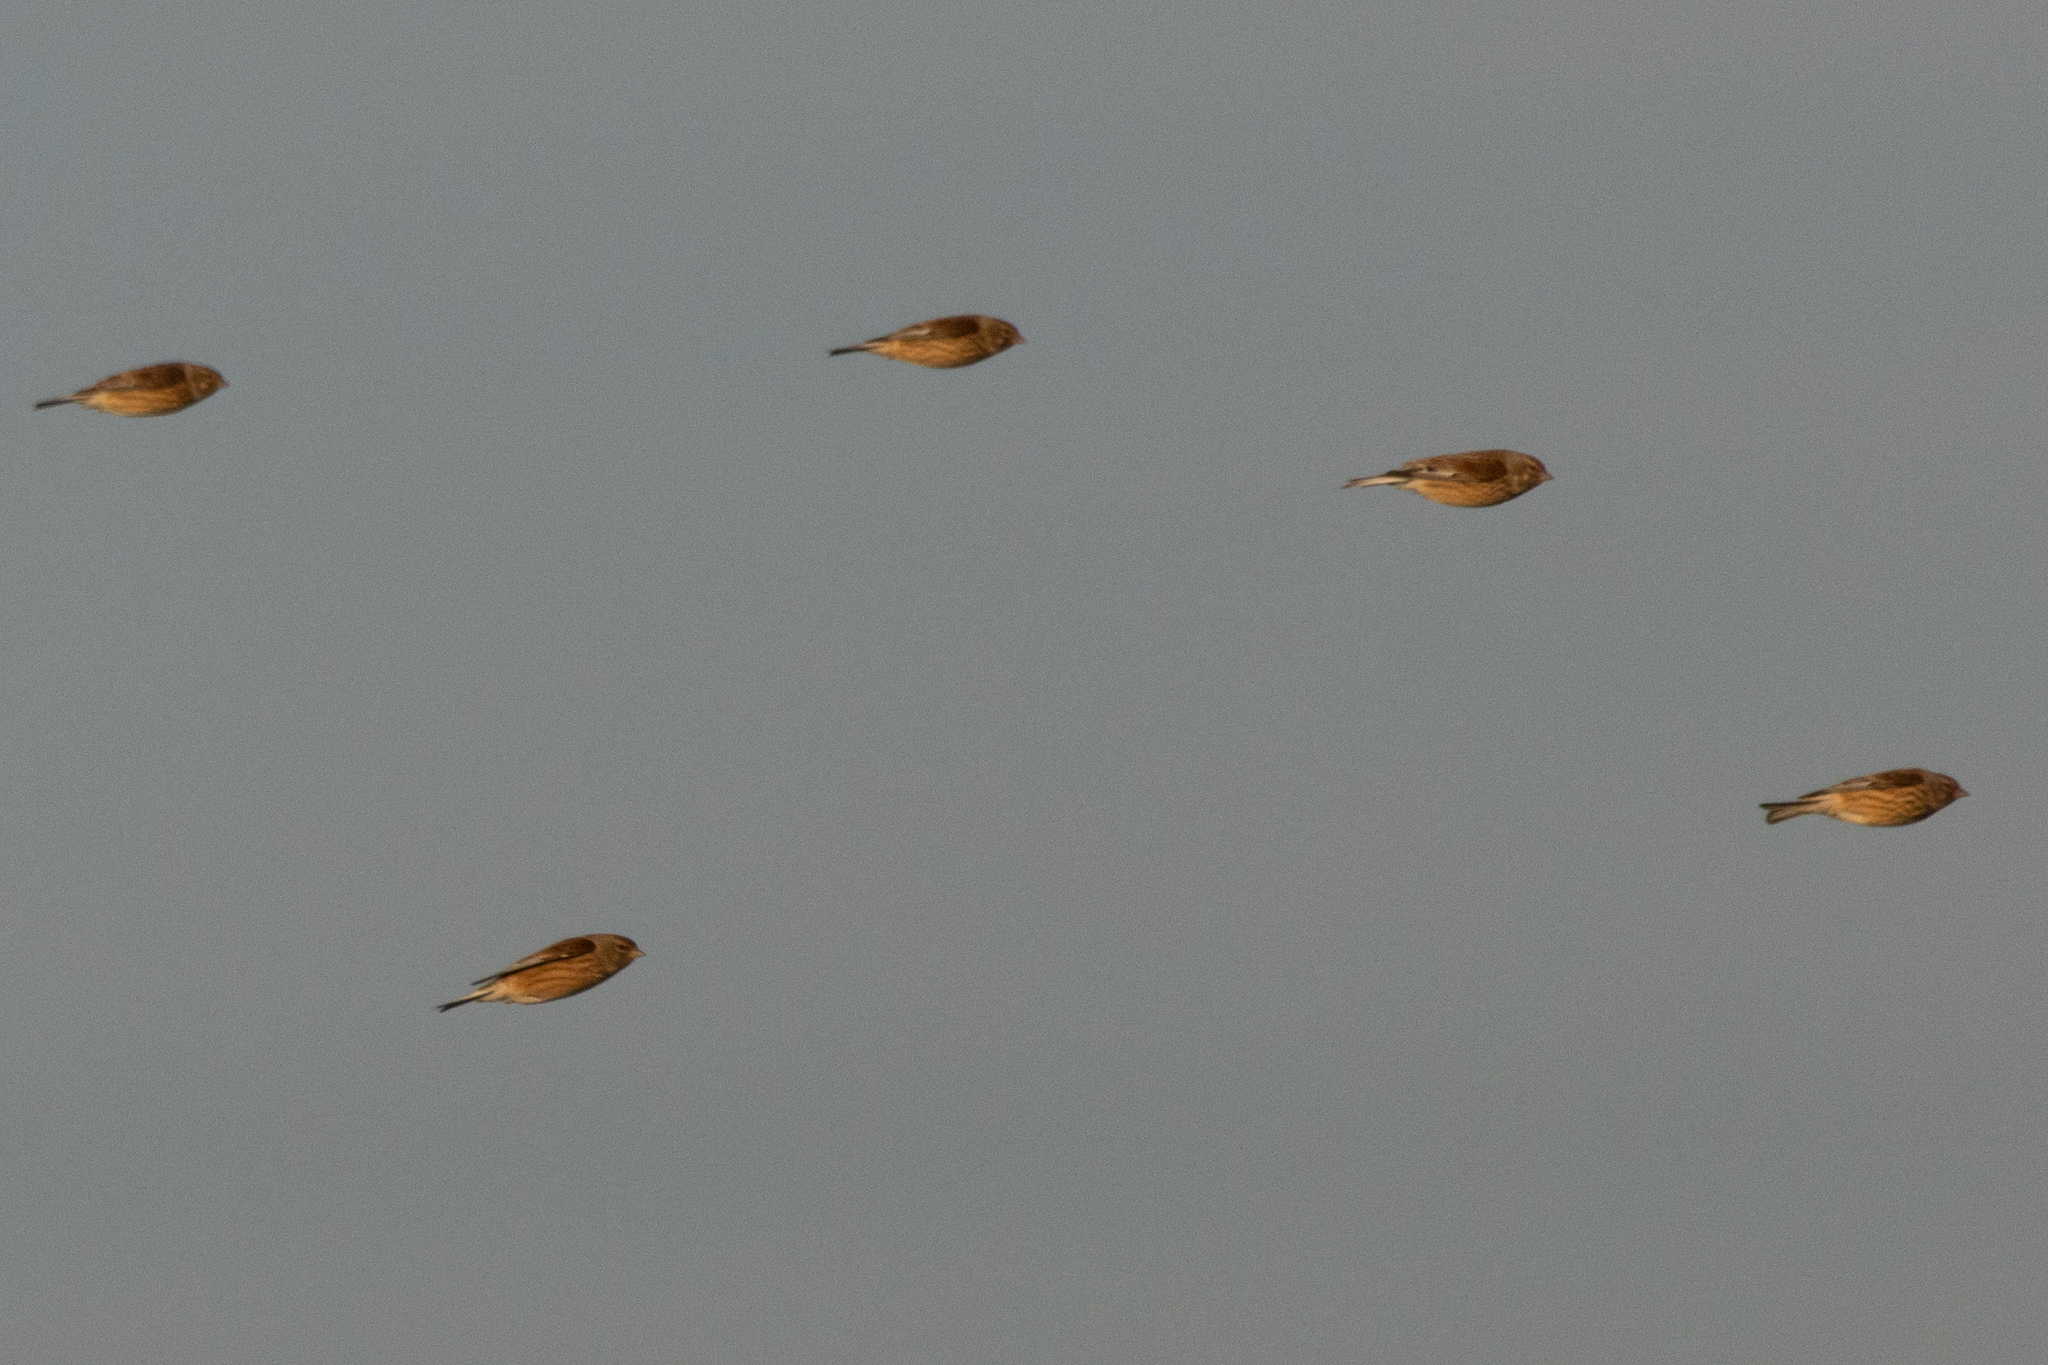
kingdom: Animalia
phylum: Chordata
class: Aves
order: Passeriformes
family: Fringillidae
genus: Linaria
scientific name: Linaria cannabina
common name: Common linnet
